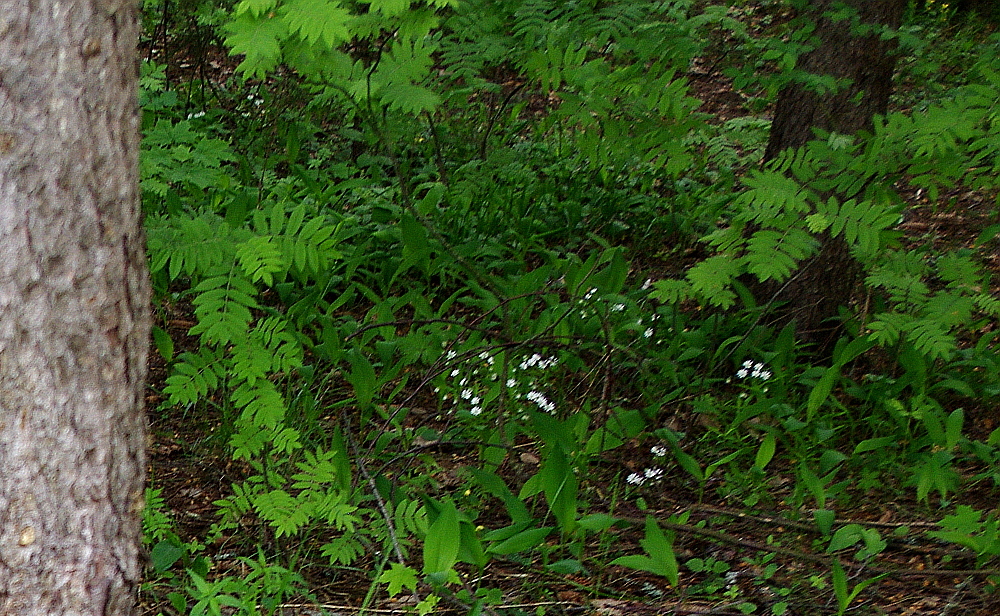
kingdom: Plantae
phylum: Tracheophyta
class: Magnoliopsida
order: Rosales
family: Rosaceae
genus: Sorbus
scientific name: Sorbus aucuparia
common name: Rowan
